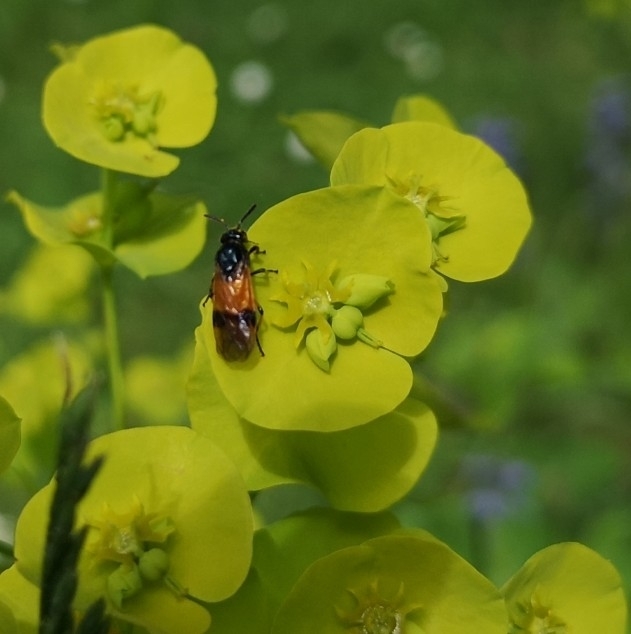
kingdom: Animalia
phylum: Arthropoda
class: Insecta
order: Hymenoptera
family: Argidae
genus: Arge
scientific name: Arge cyanocrocea
